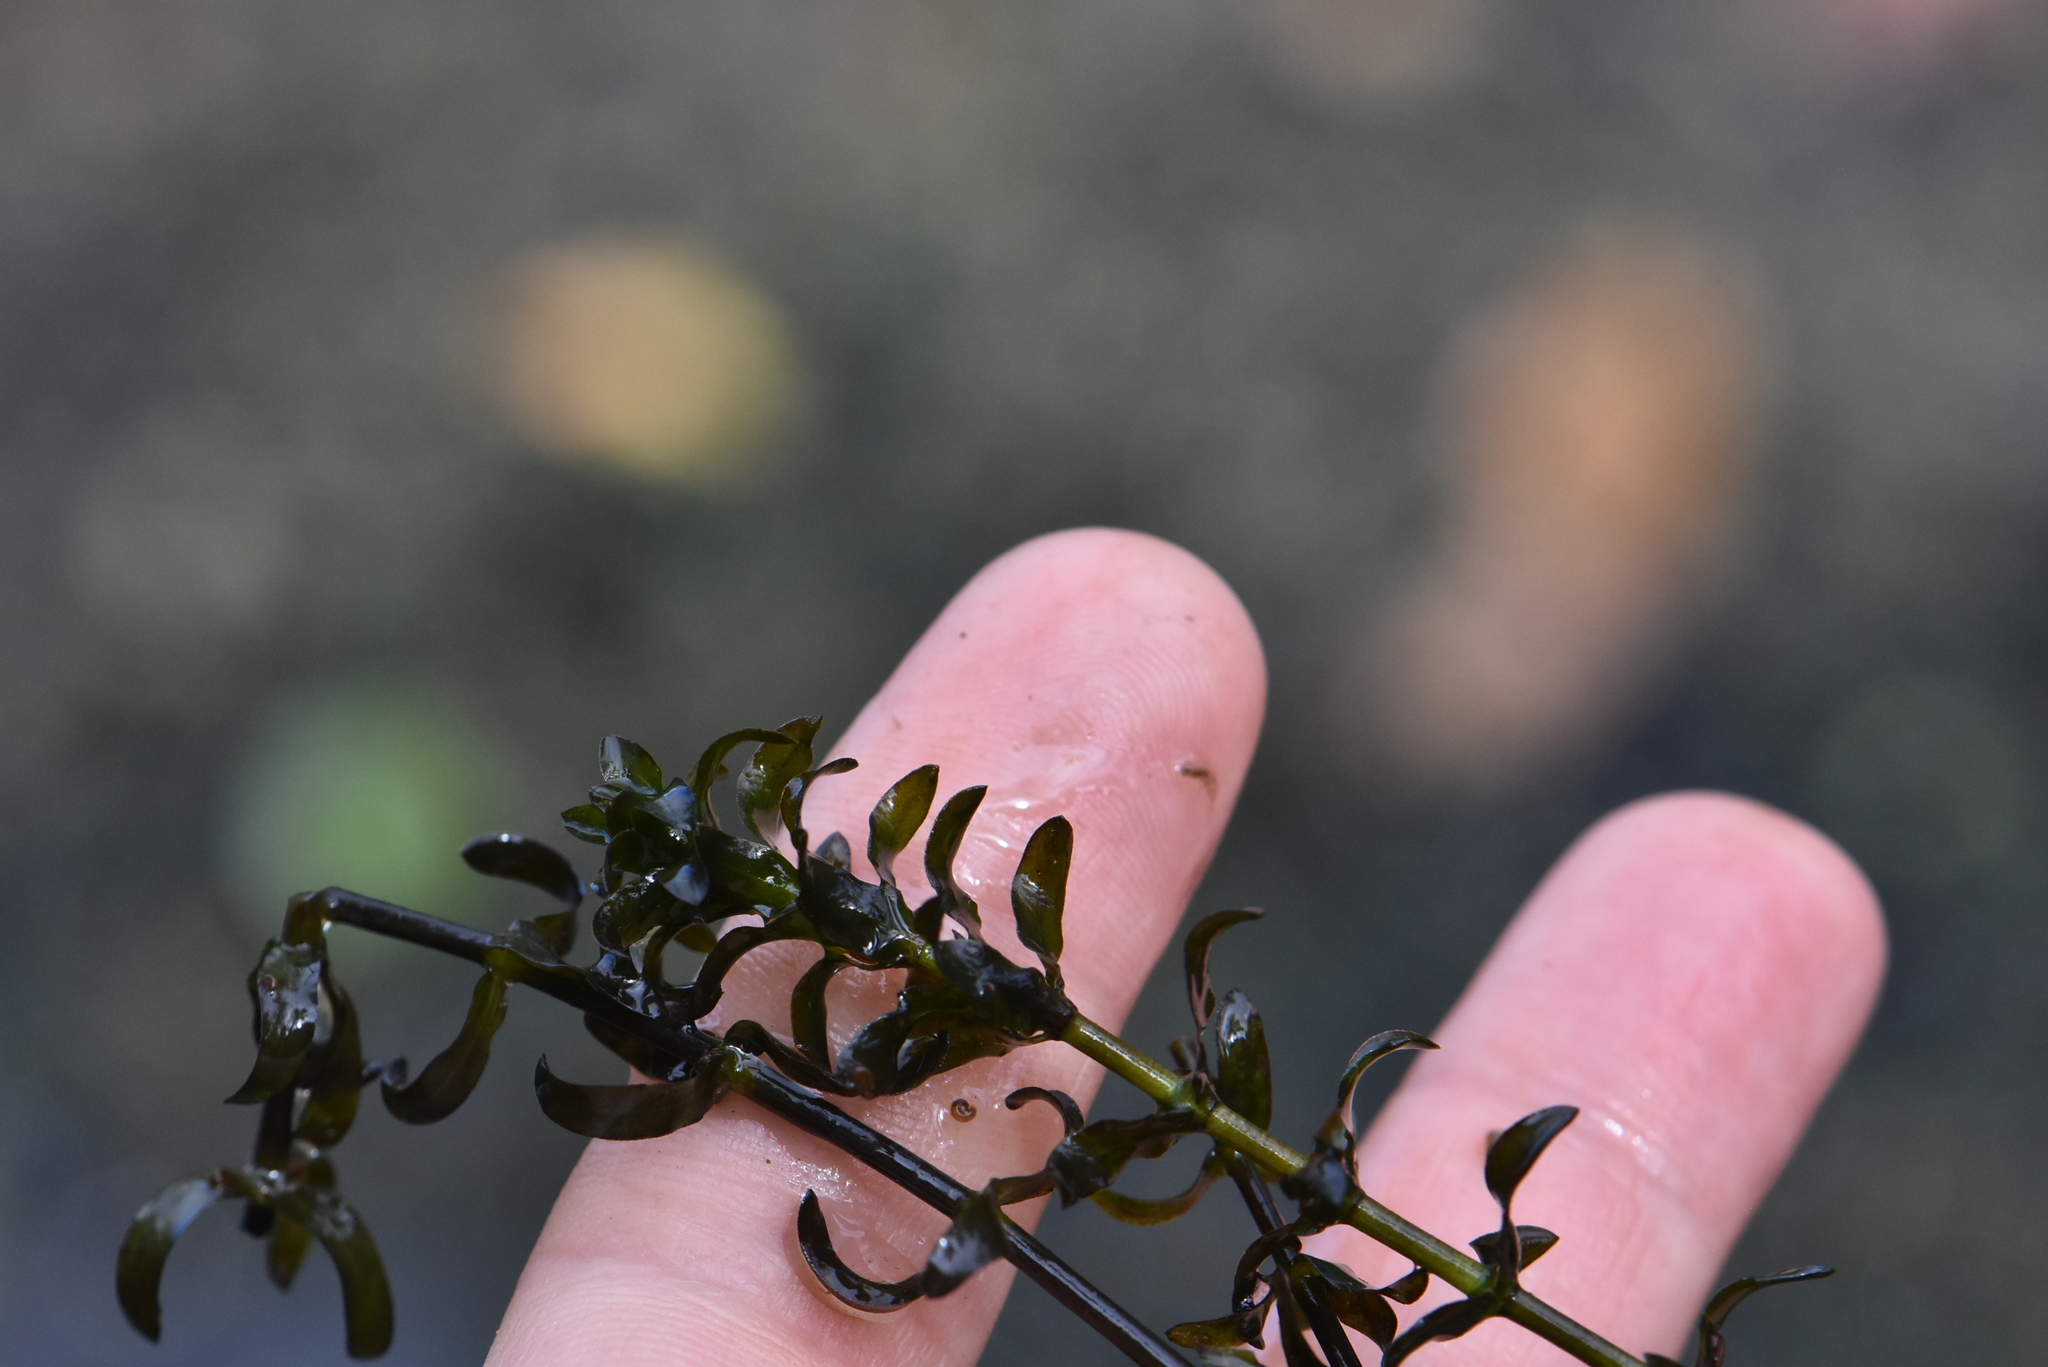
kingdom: Plantae
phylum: Tracheophyta
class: Liliopsida
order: Alismatales
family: Hydrocharitaceae
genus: Elodea
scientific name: Elodea canadensis
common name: Canadian waterweed
